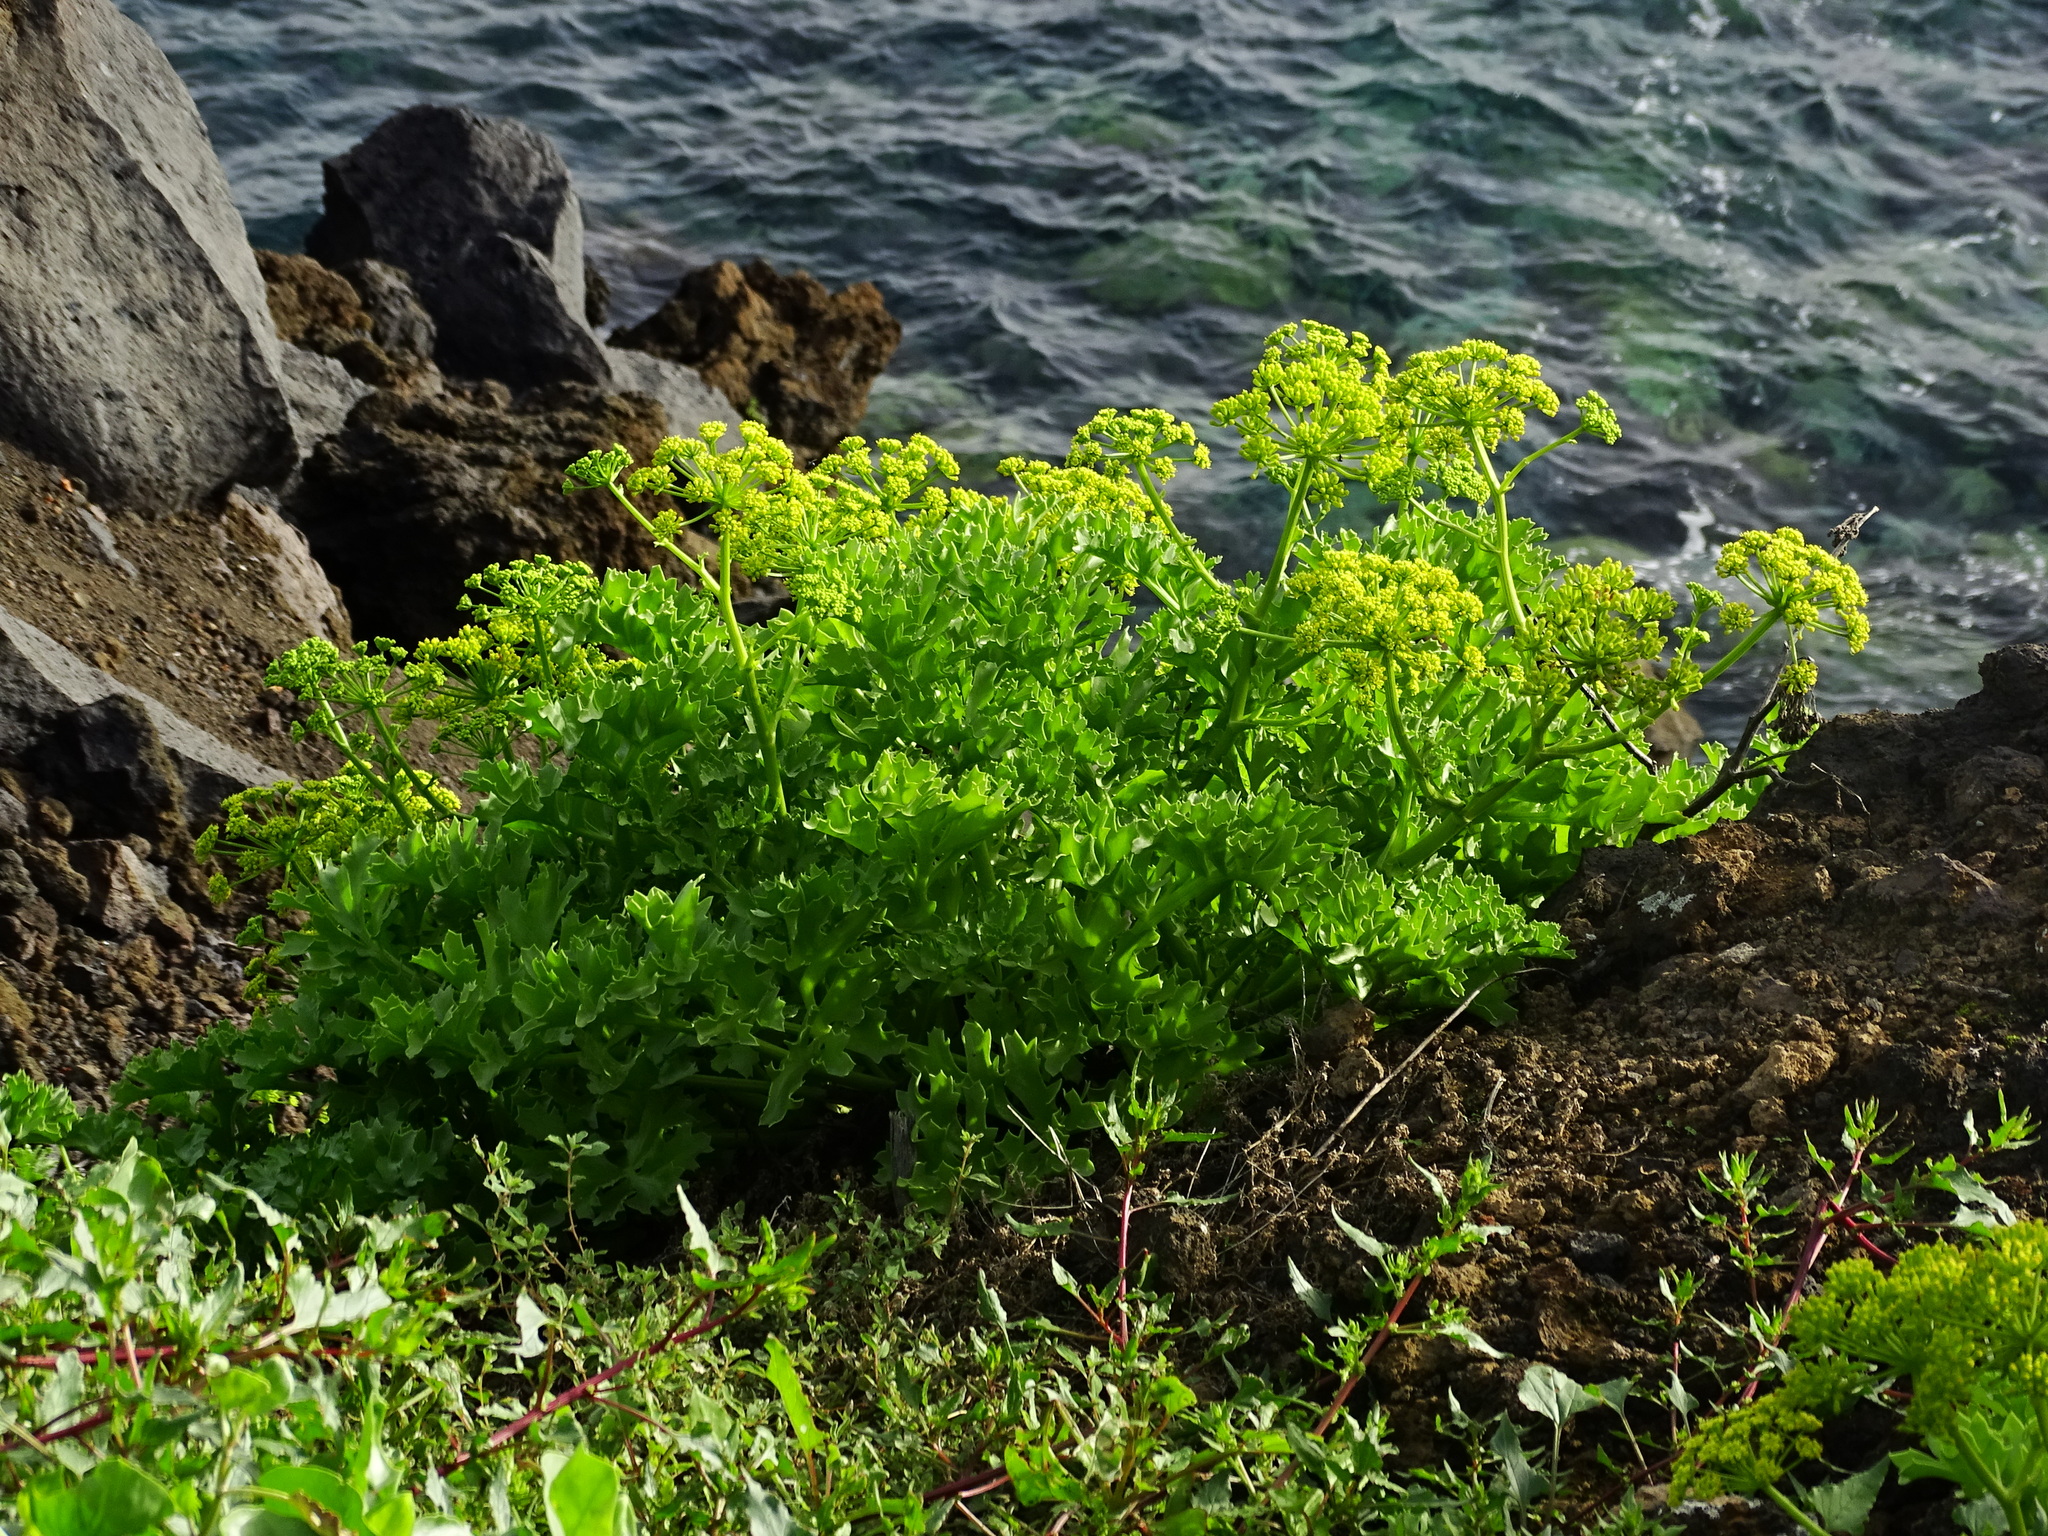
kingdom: Plantae
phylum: Tracheophyta
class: Magnoliopsida
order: Apiales
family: Apiaceae
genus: Astydamia
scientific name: Astydamia latifolia
